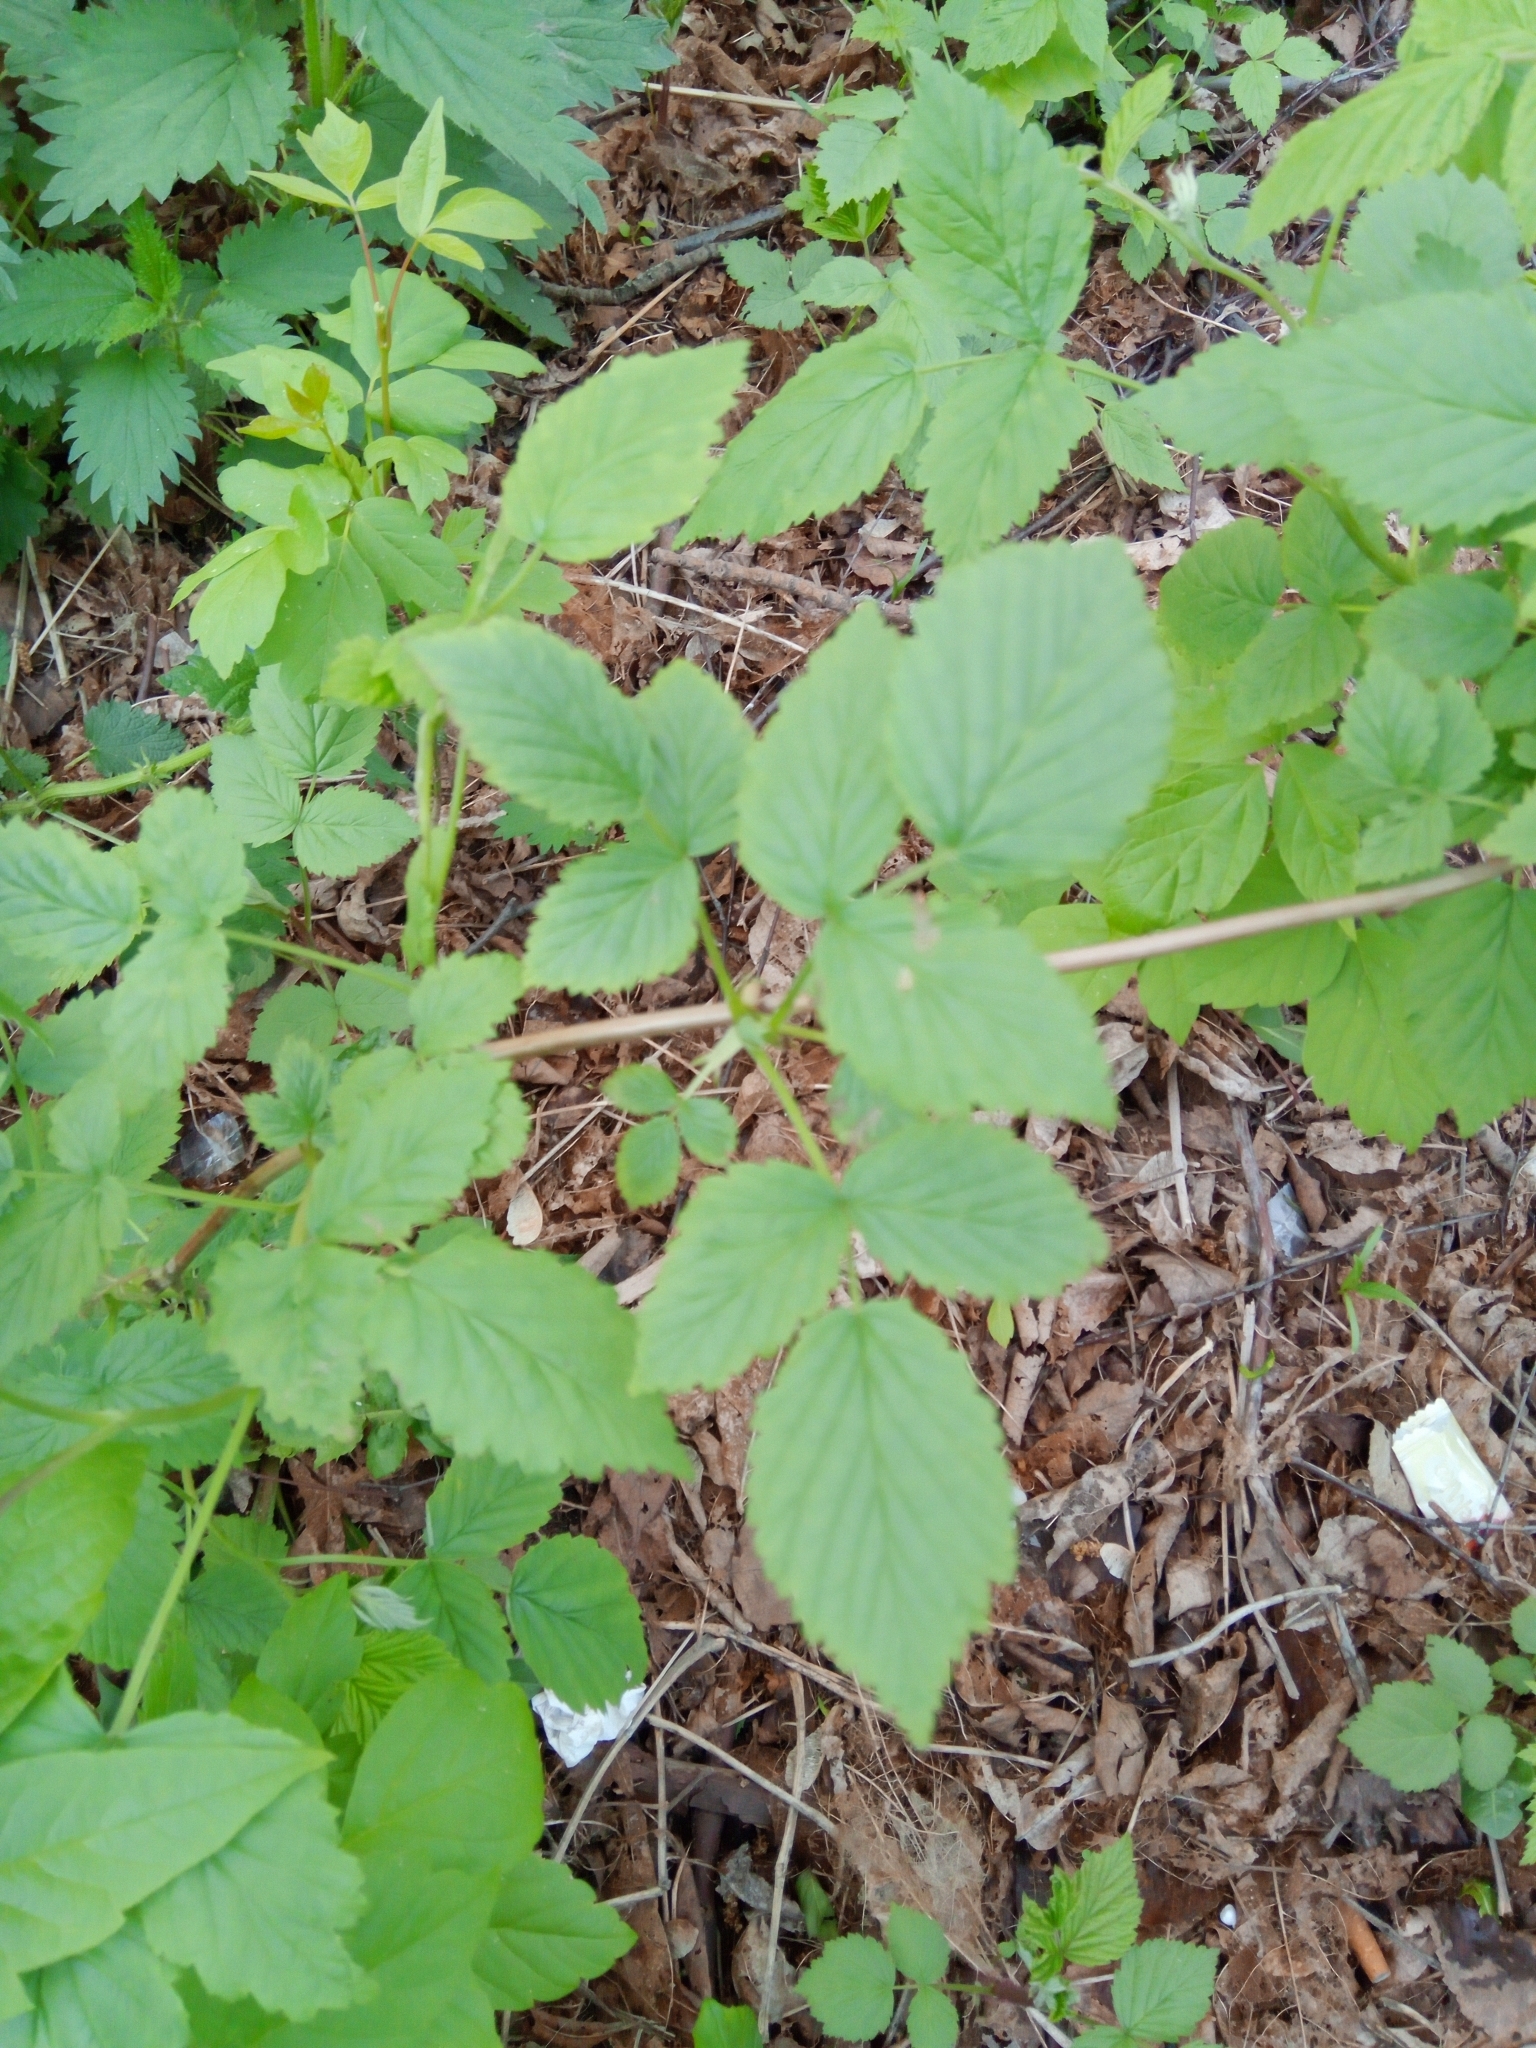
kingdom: Plantae
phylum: Tracheophyta
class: Magnoliopsida
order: Rosales
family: Rosaceae
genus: Rubus
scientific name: Rubus idaeus
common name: Raspberry
